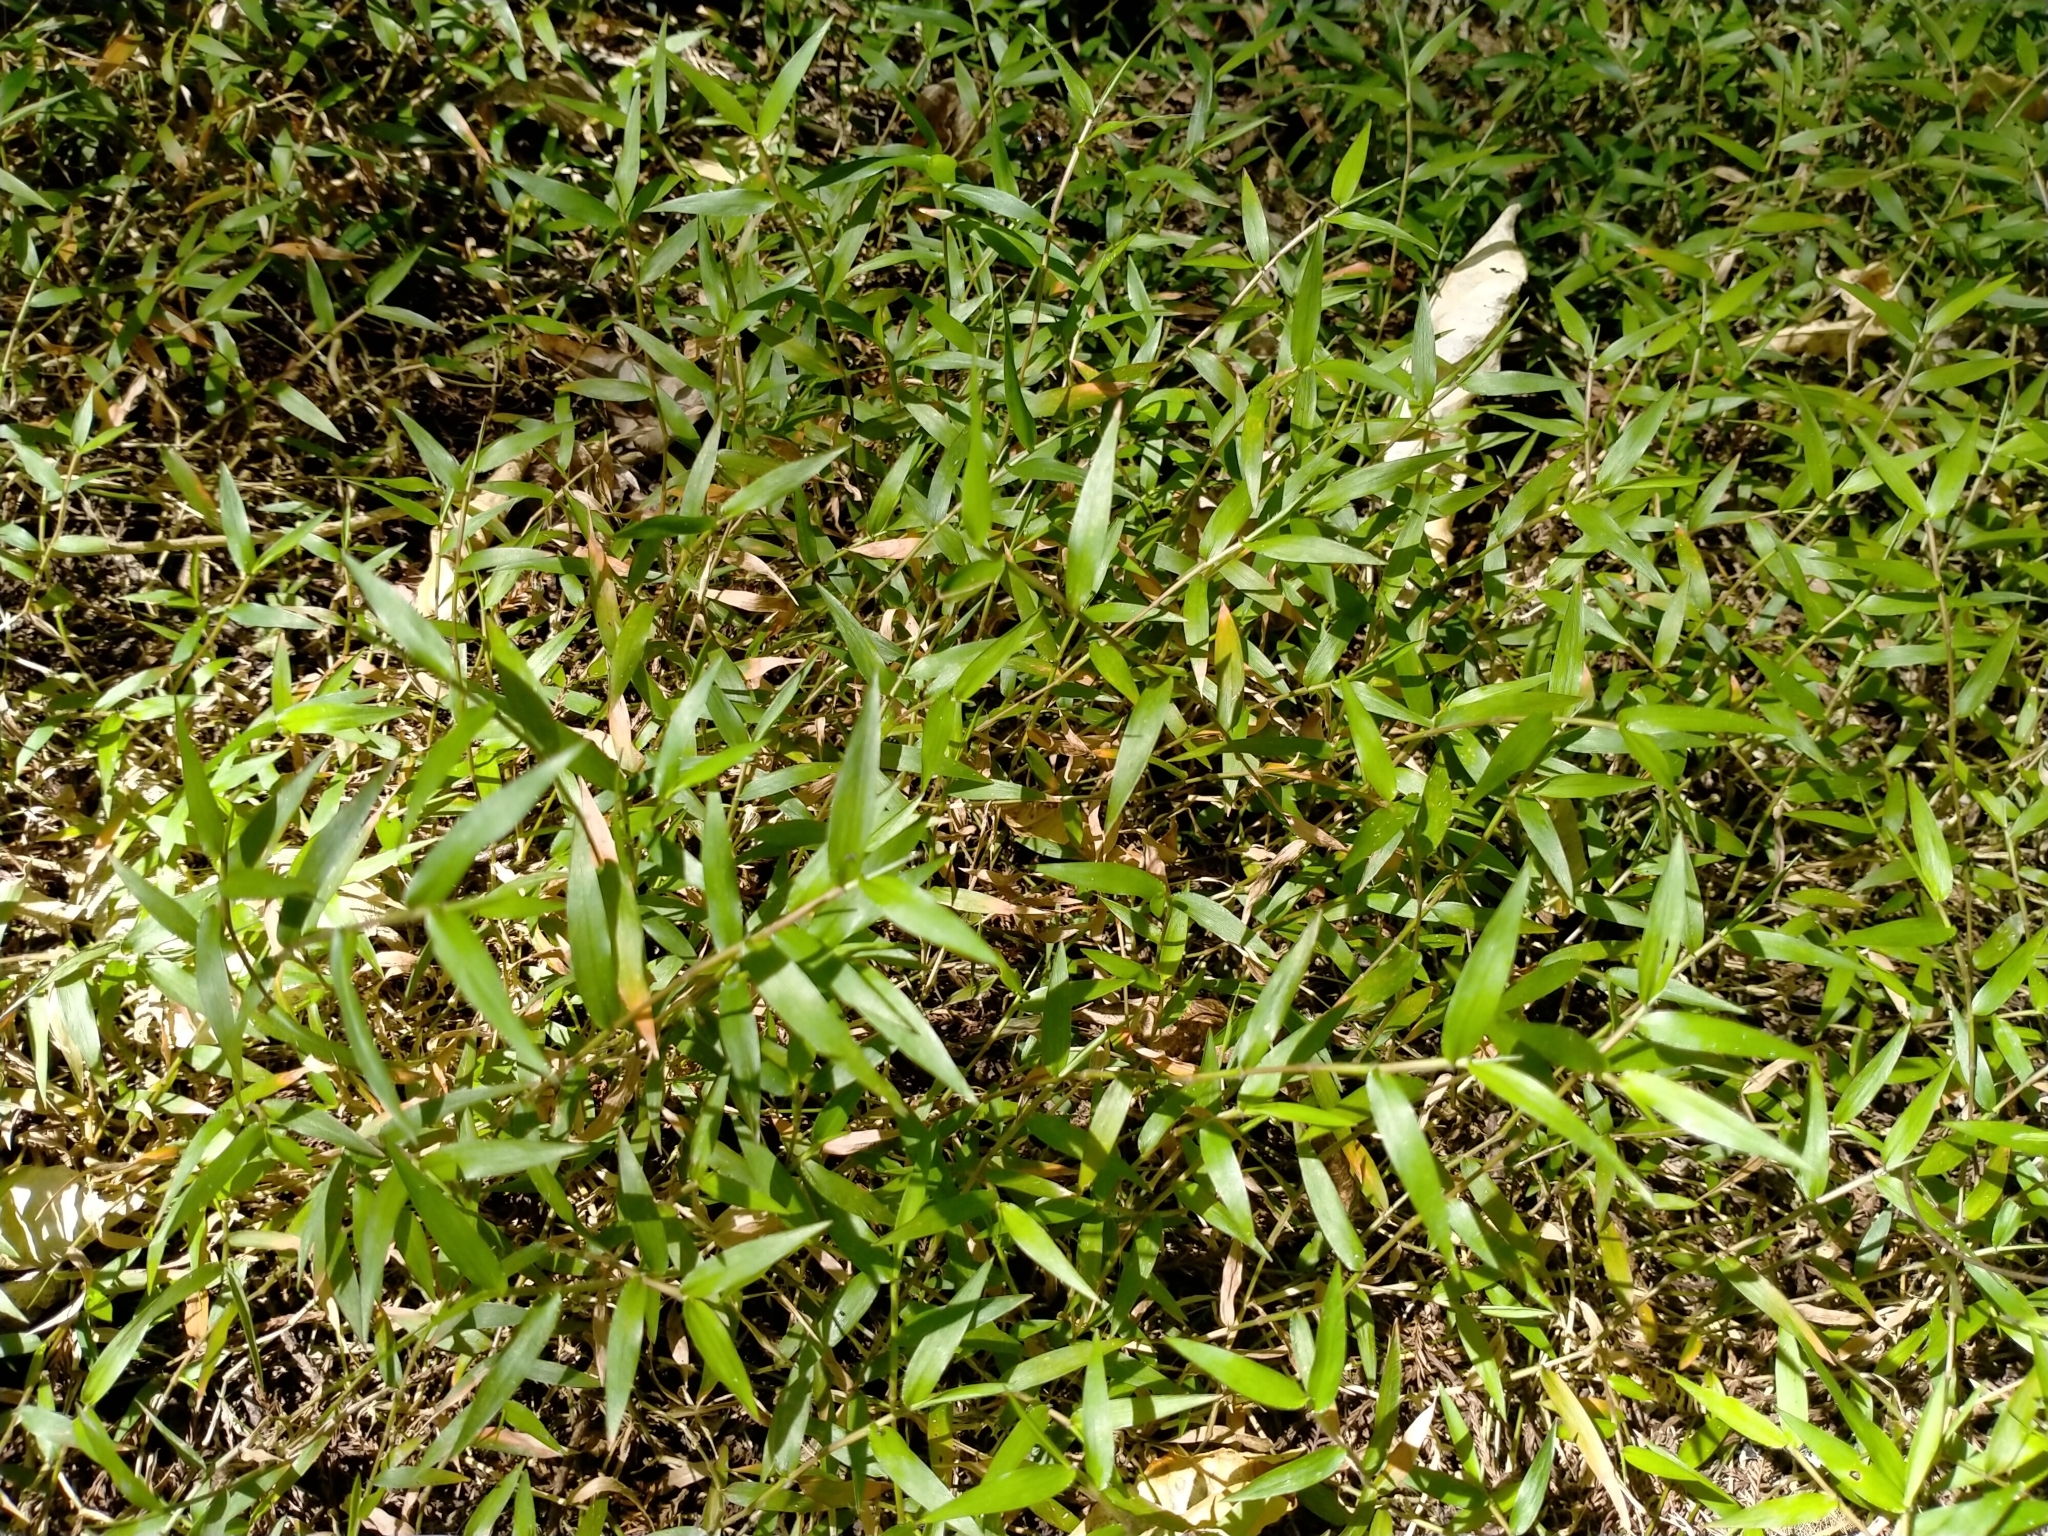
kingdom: Plantae
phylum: Tracheophyta
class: Liliopsida
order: Poales
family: Poaceae
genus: Oplismenus
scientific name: Oplismenus hirtellus
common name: Basketgrass
